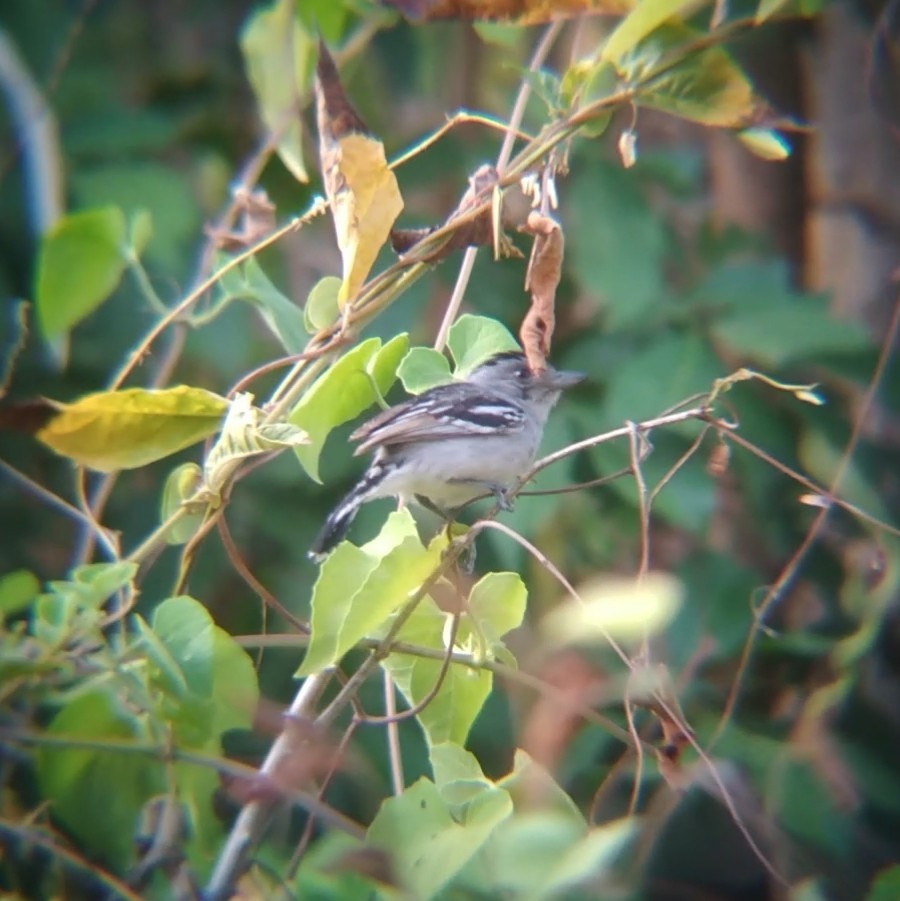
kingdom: Animalia
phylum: Chordata
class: Aves
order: Passeriformes
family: Thamnophilidae
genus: Thamnophilus
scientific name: Thamnophilus pelzelni
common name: Planalto slaty-antshrike
